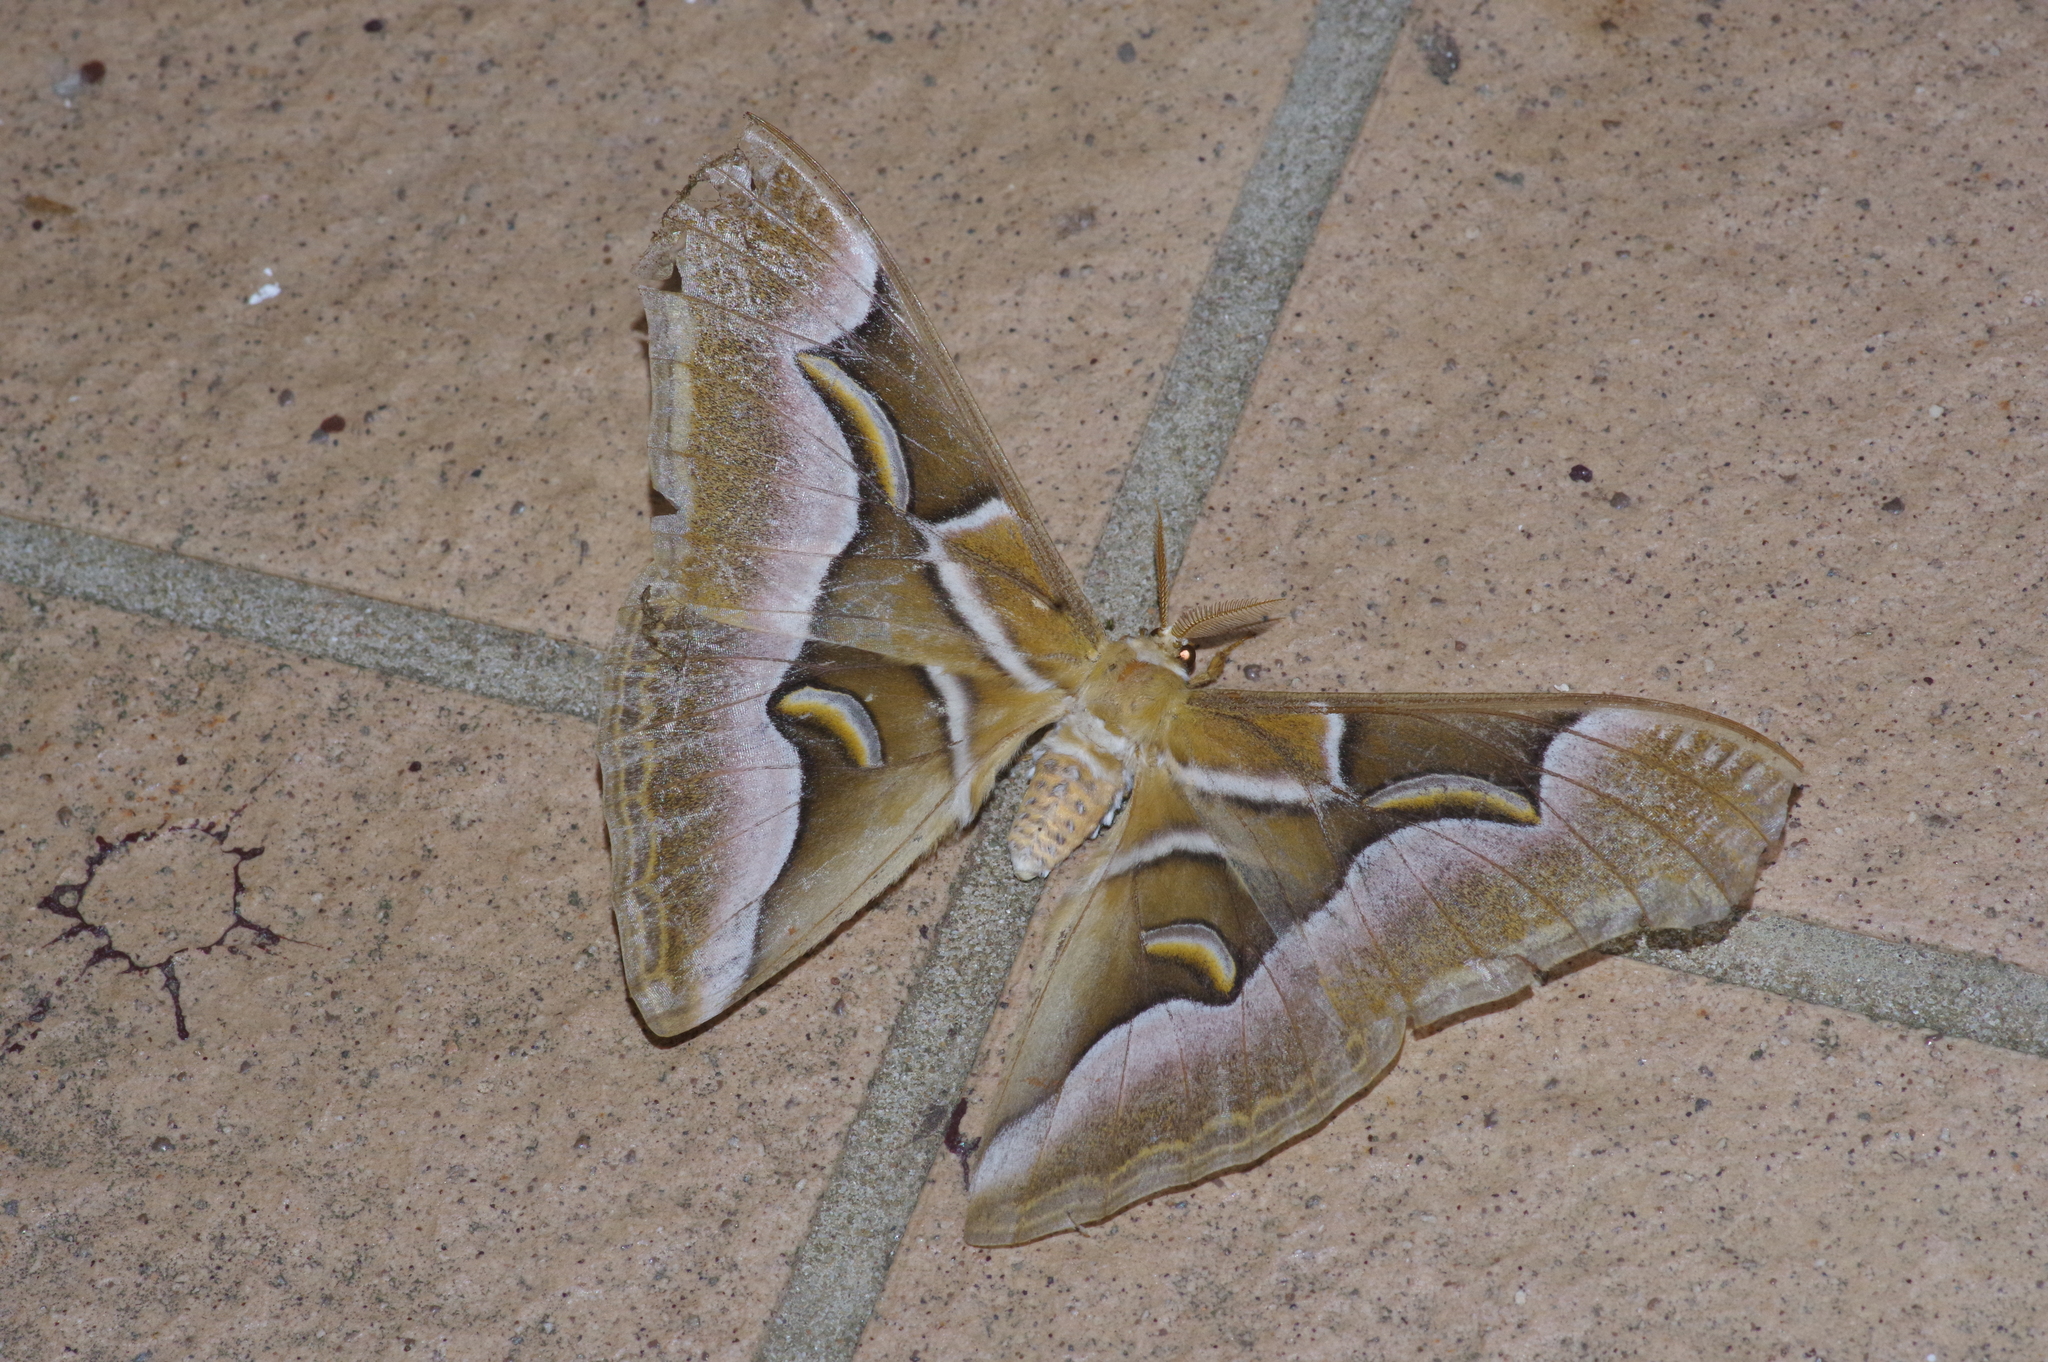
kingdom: Animalia
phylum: Arthropoda
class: Insecta
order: Lepidoptera
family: Saturniidae
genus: Samia
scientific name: Samia cynthia
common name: Ailanthus silkmoth
